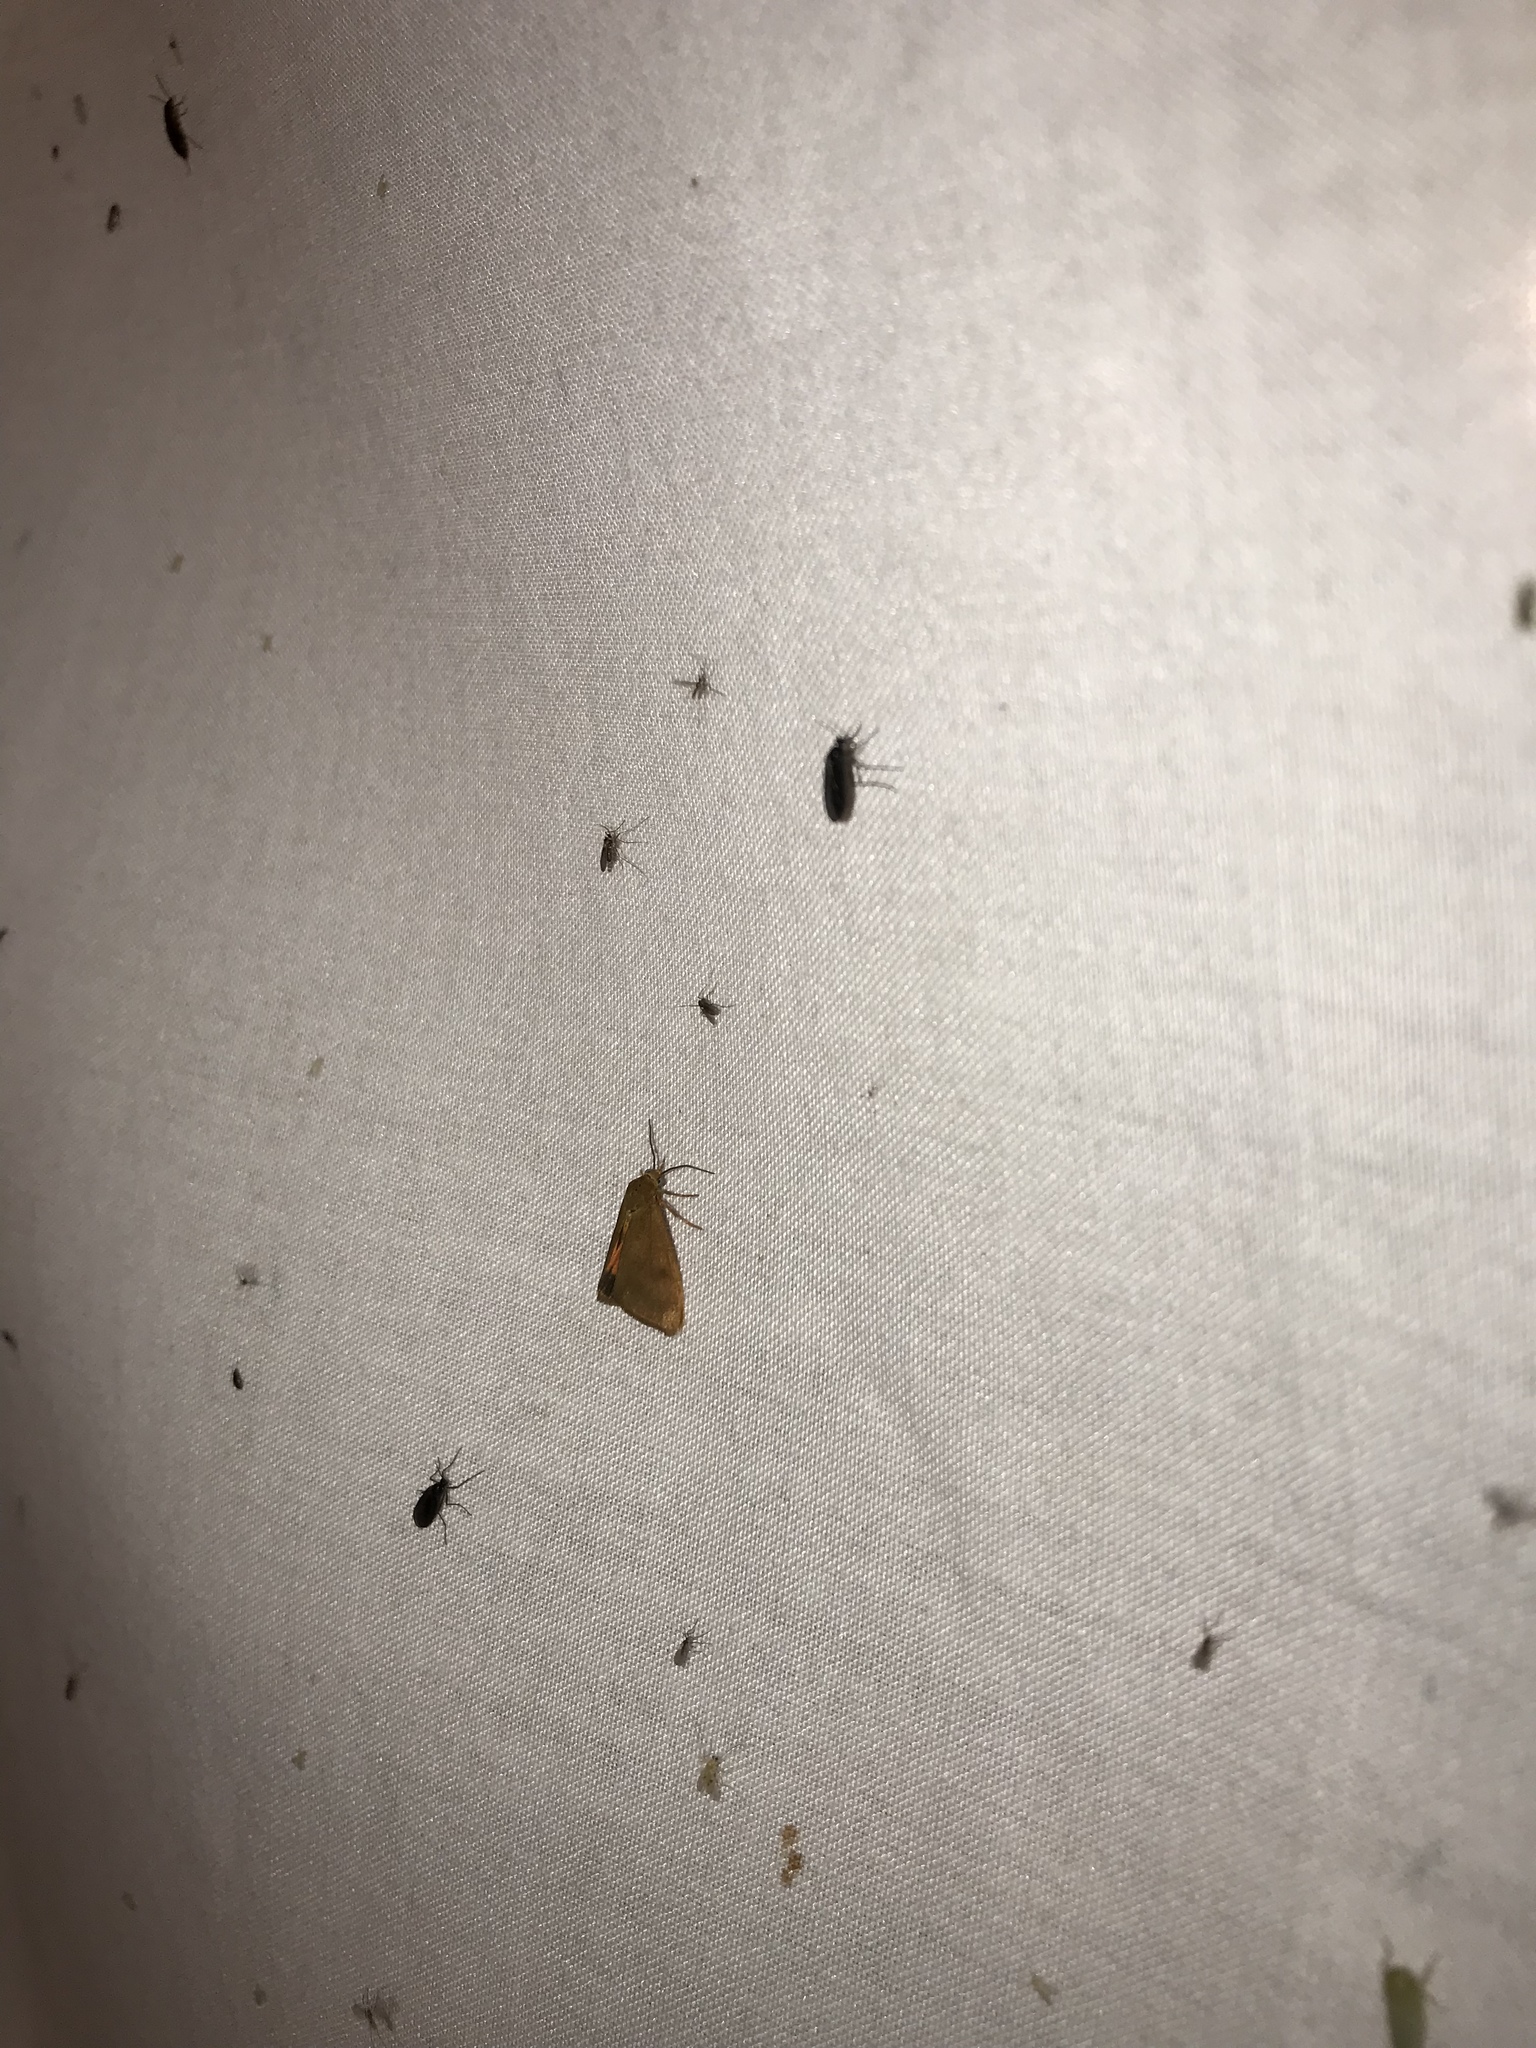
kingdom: Animalia
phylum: Arthropoda
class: Insecta
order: Lepidoptera
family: Erebidae
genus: Virbia
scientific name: Virbia aurantiaca
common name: Orange virbia moth
